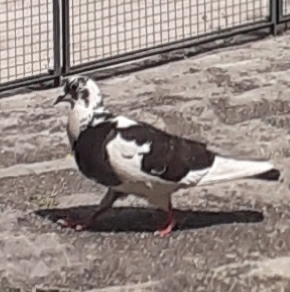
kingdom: Animalia
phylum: Chordata
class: Aves
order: Columbiformes
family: Columbidae
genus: Columba
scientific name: Columba livia
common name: Rock pigeon
